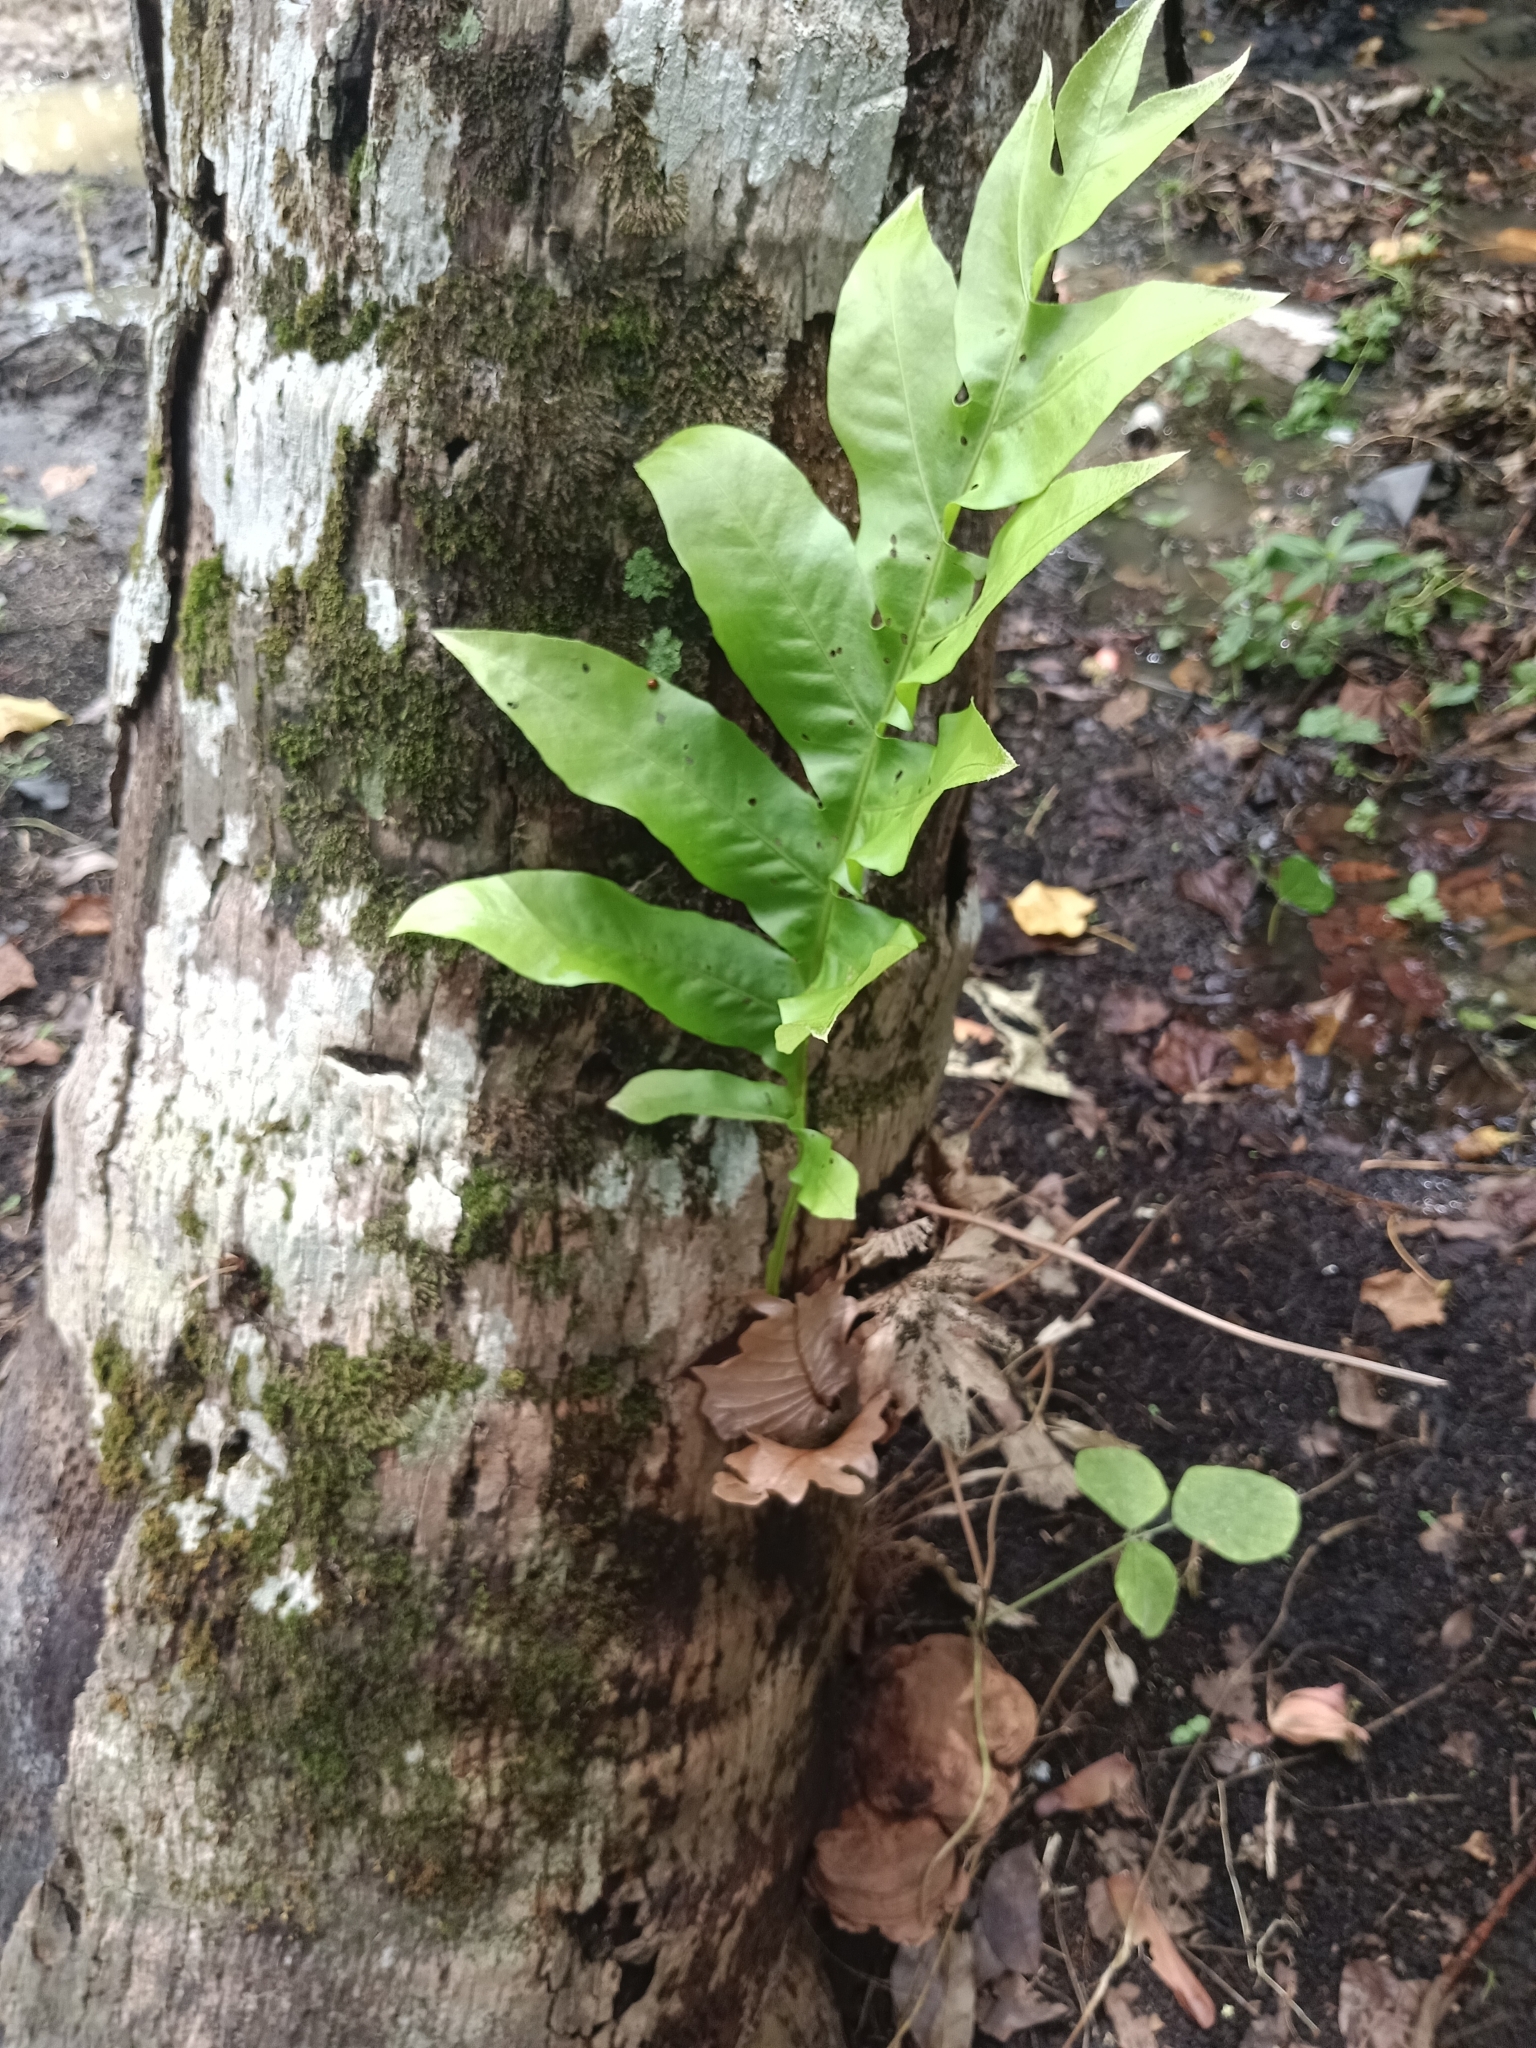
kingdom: Plantae
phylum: Tracheophyta
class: Polypodiopsida
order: Polypodiales
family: Polypodiaceae
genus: Drynaria
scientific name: Drynaria quercifolia
